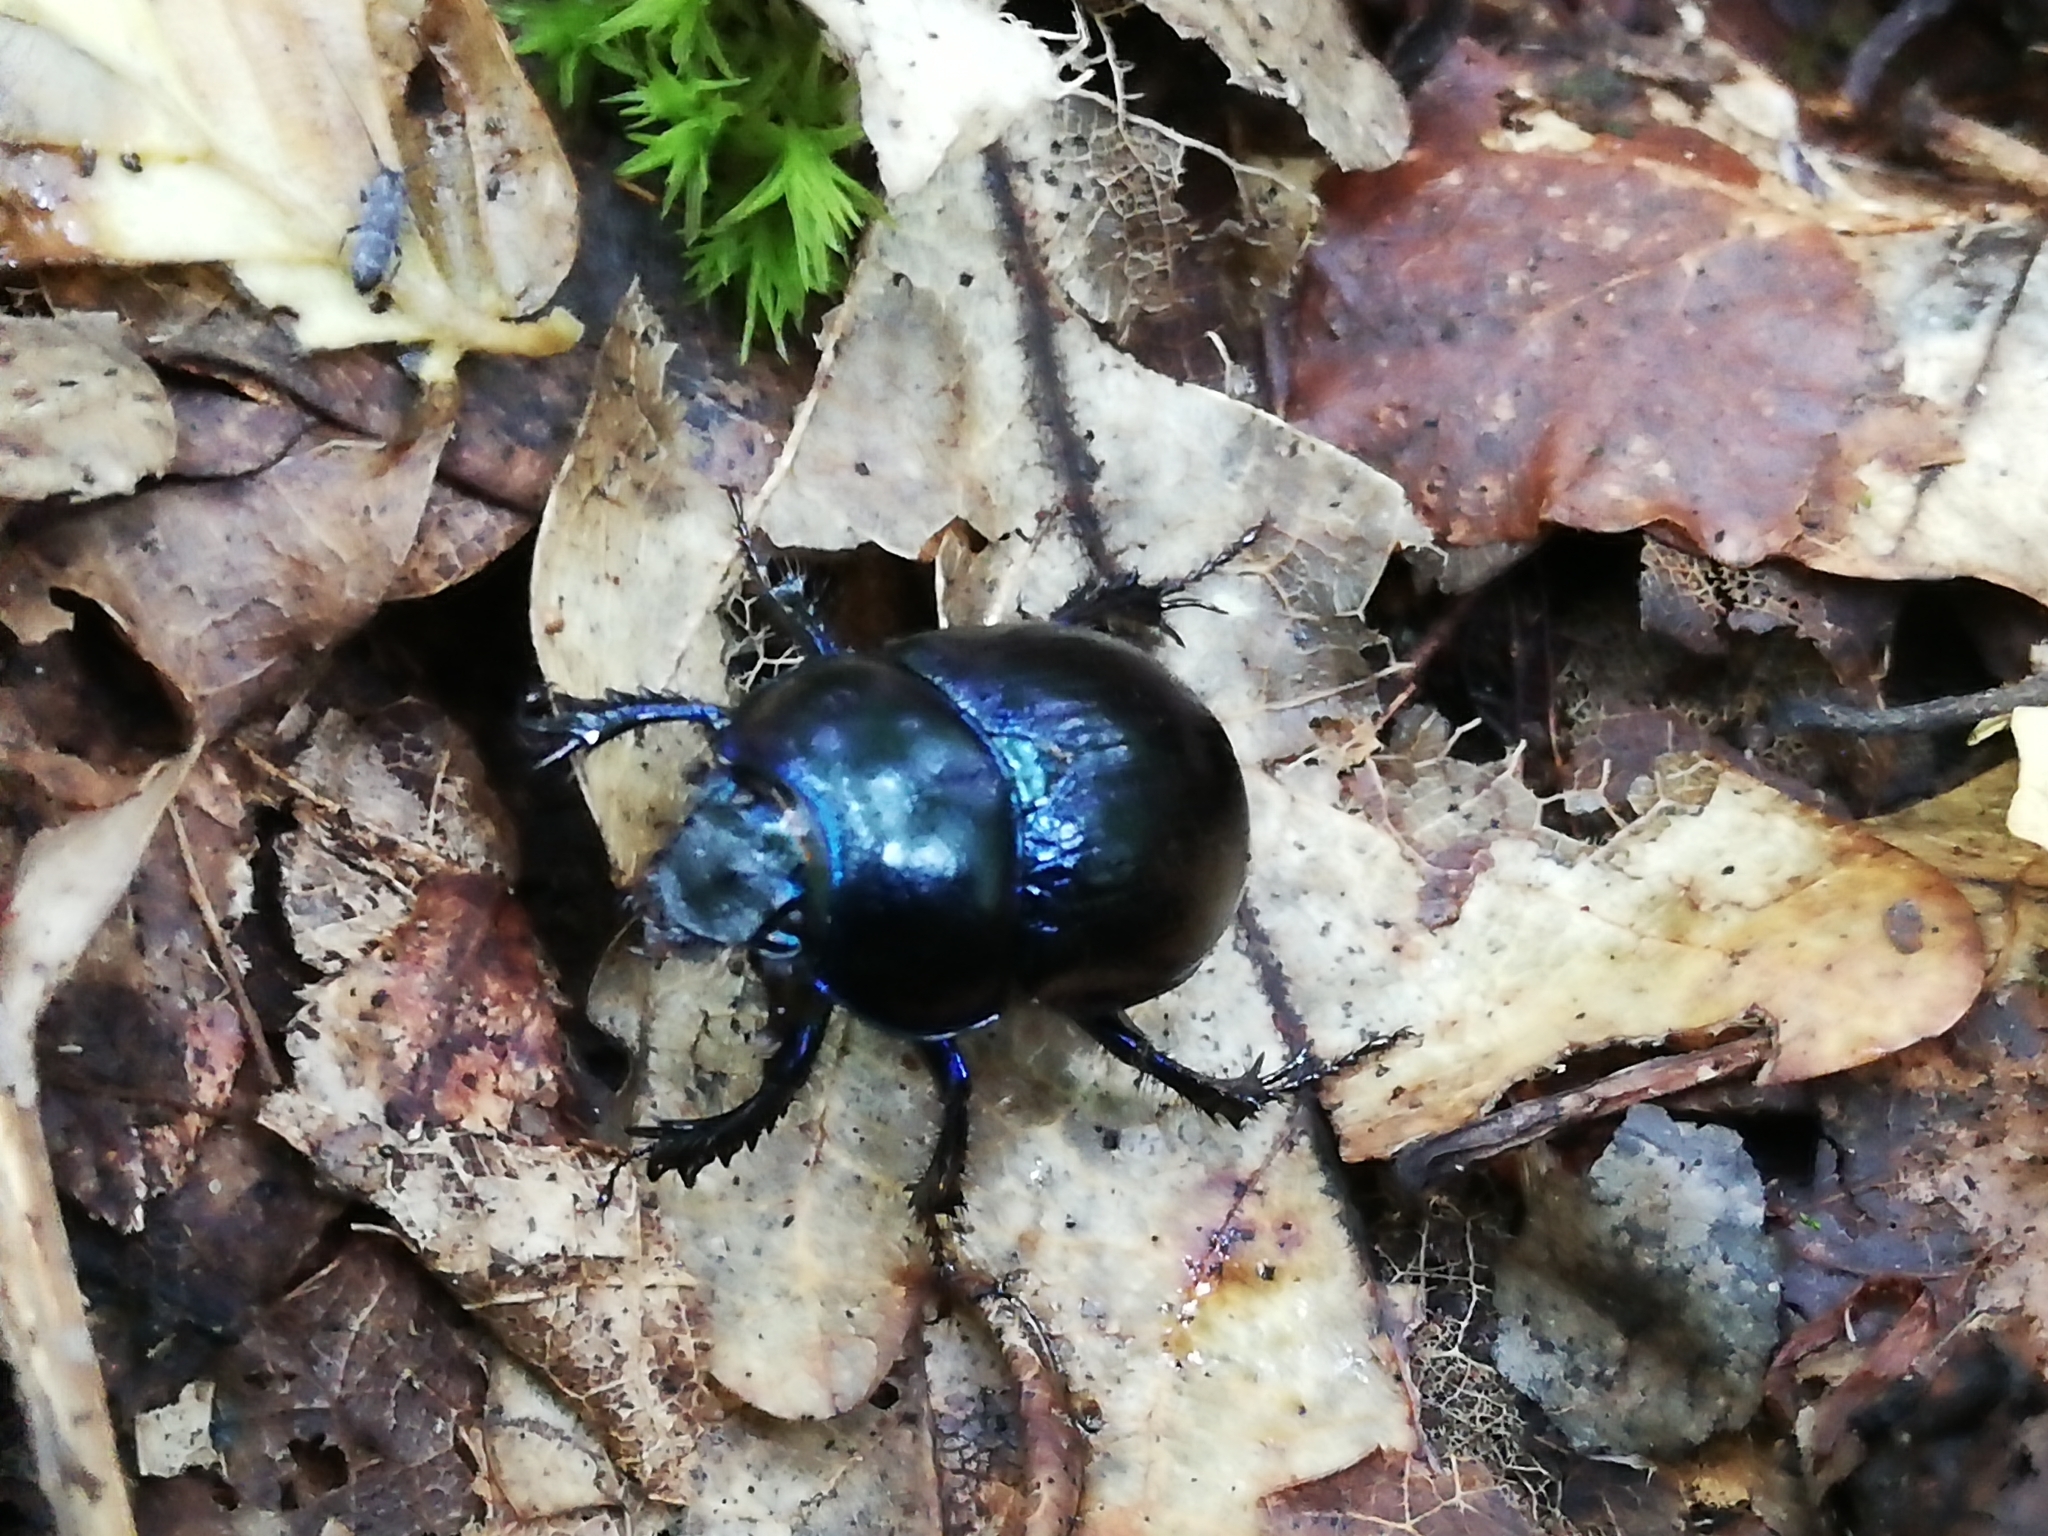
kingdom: Animalia
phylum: Arthropoda
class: Insecta
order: Coleoptera
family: Geotrupidae
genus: Anoplotrupes
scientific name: Anoplotrupes stercorosus
